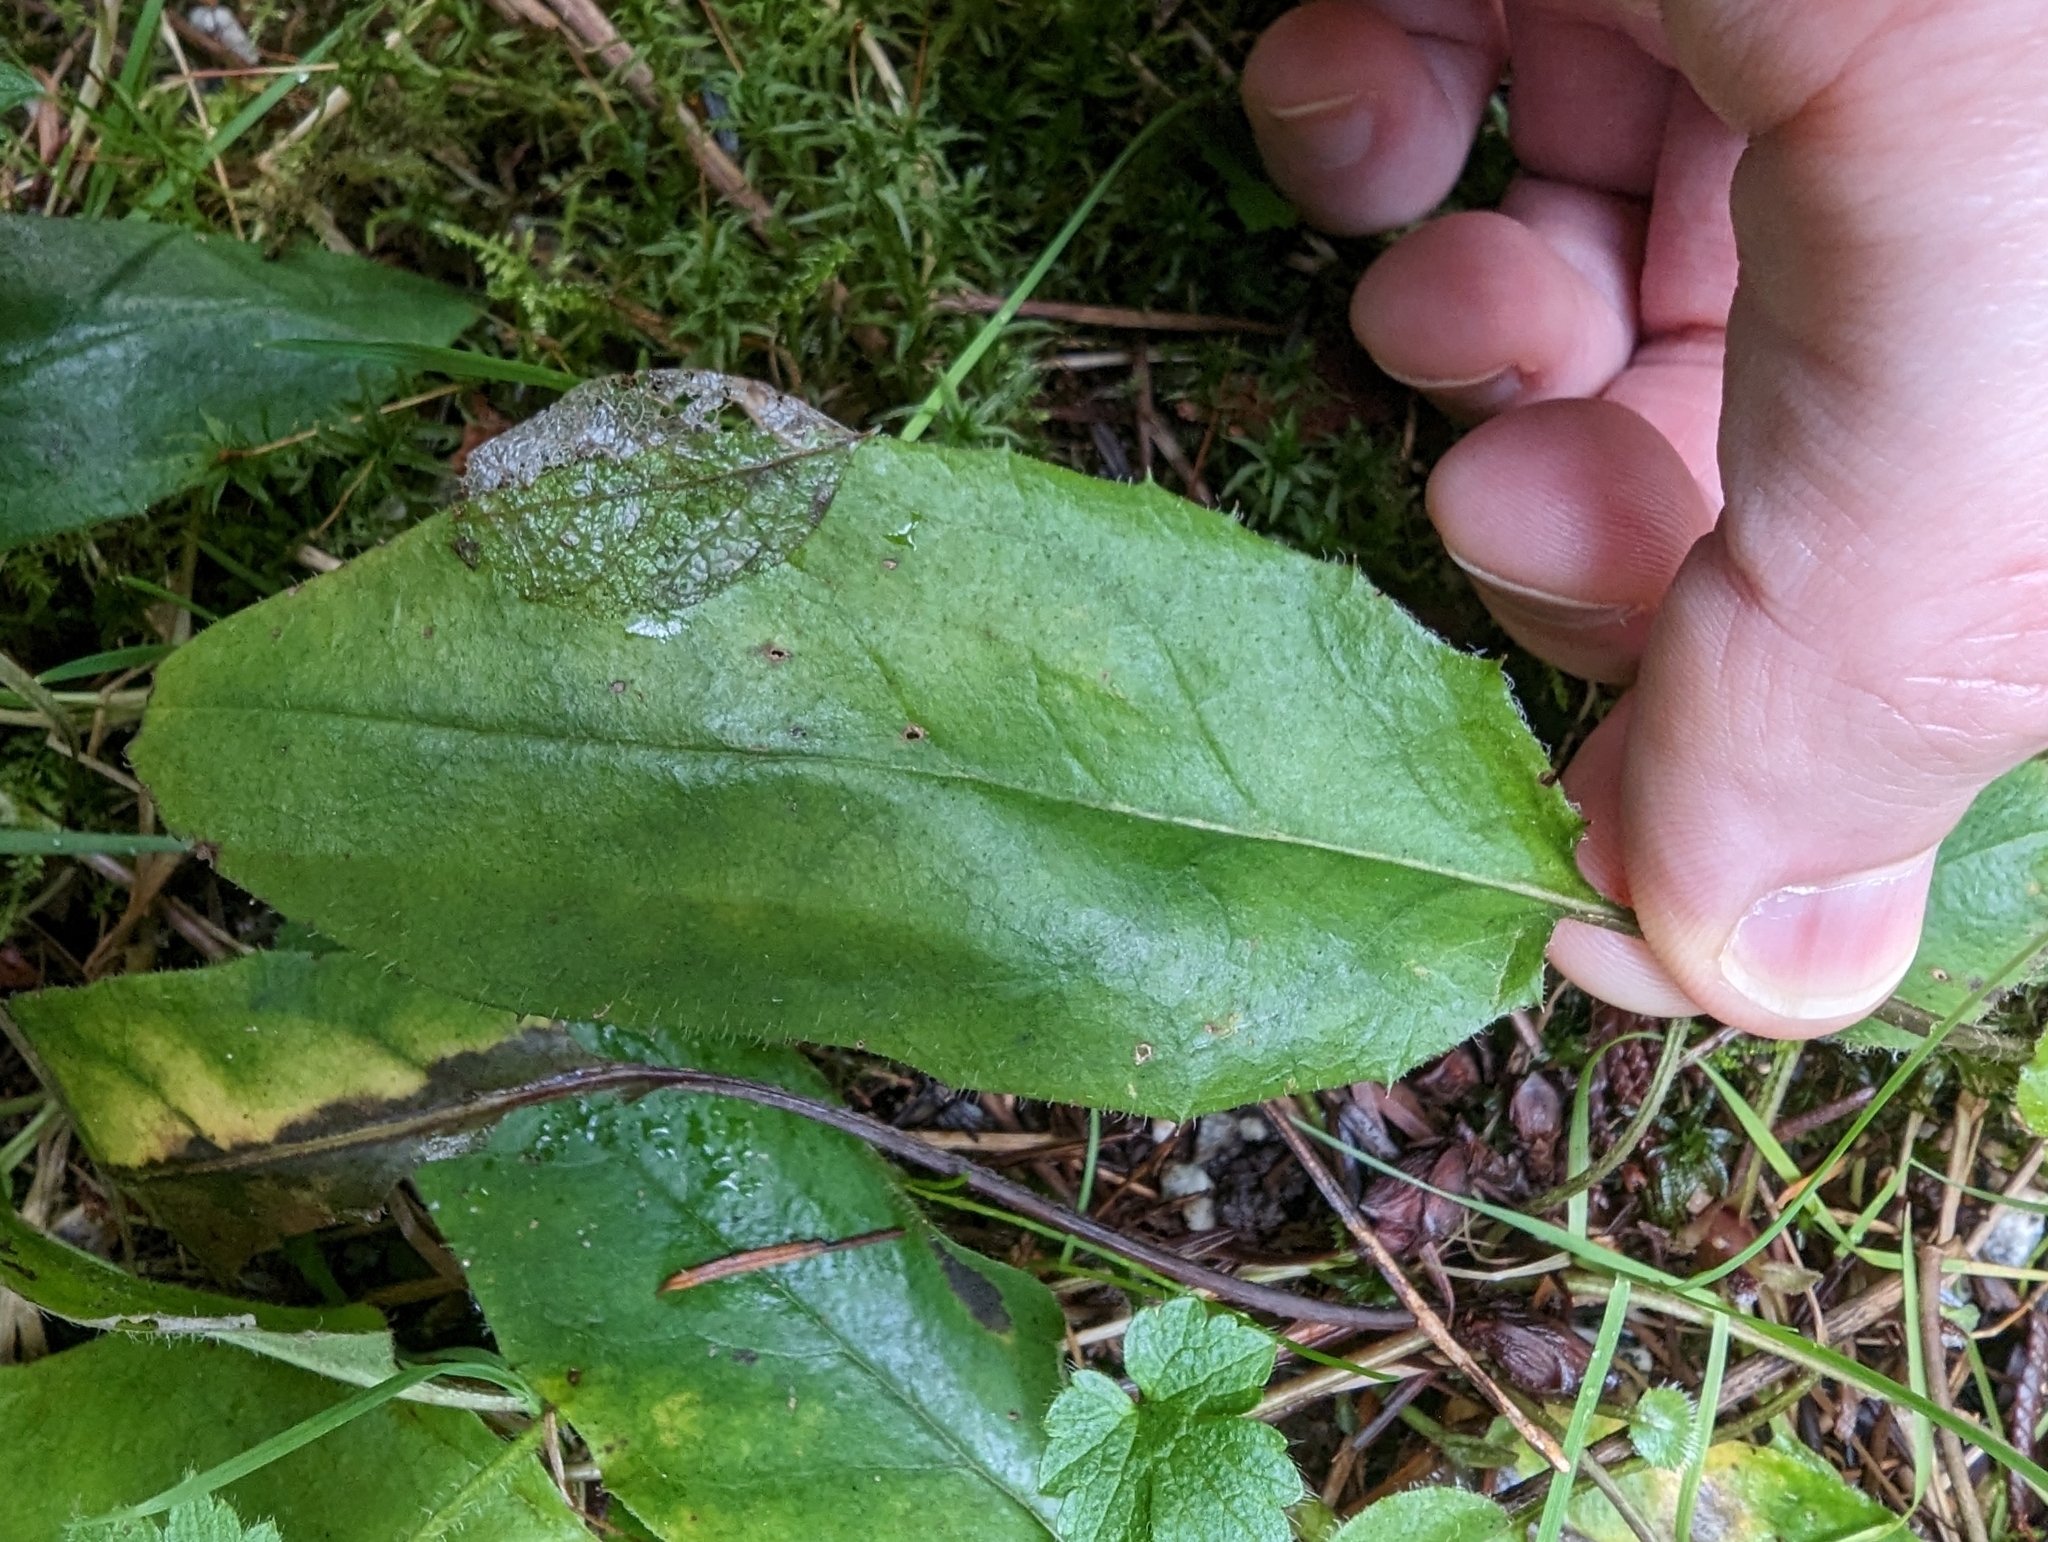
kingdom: Plantae
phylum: Tracheophyta
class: Magnoliopsida
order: Brassicales
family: Brassicaceae
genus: Hesperis
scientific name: Hesperis matronalis
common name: Dame's-violet
